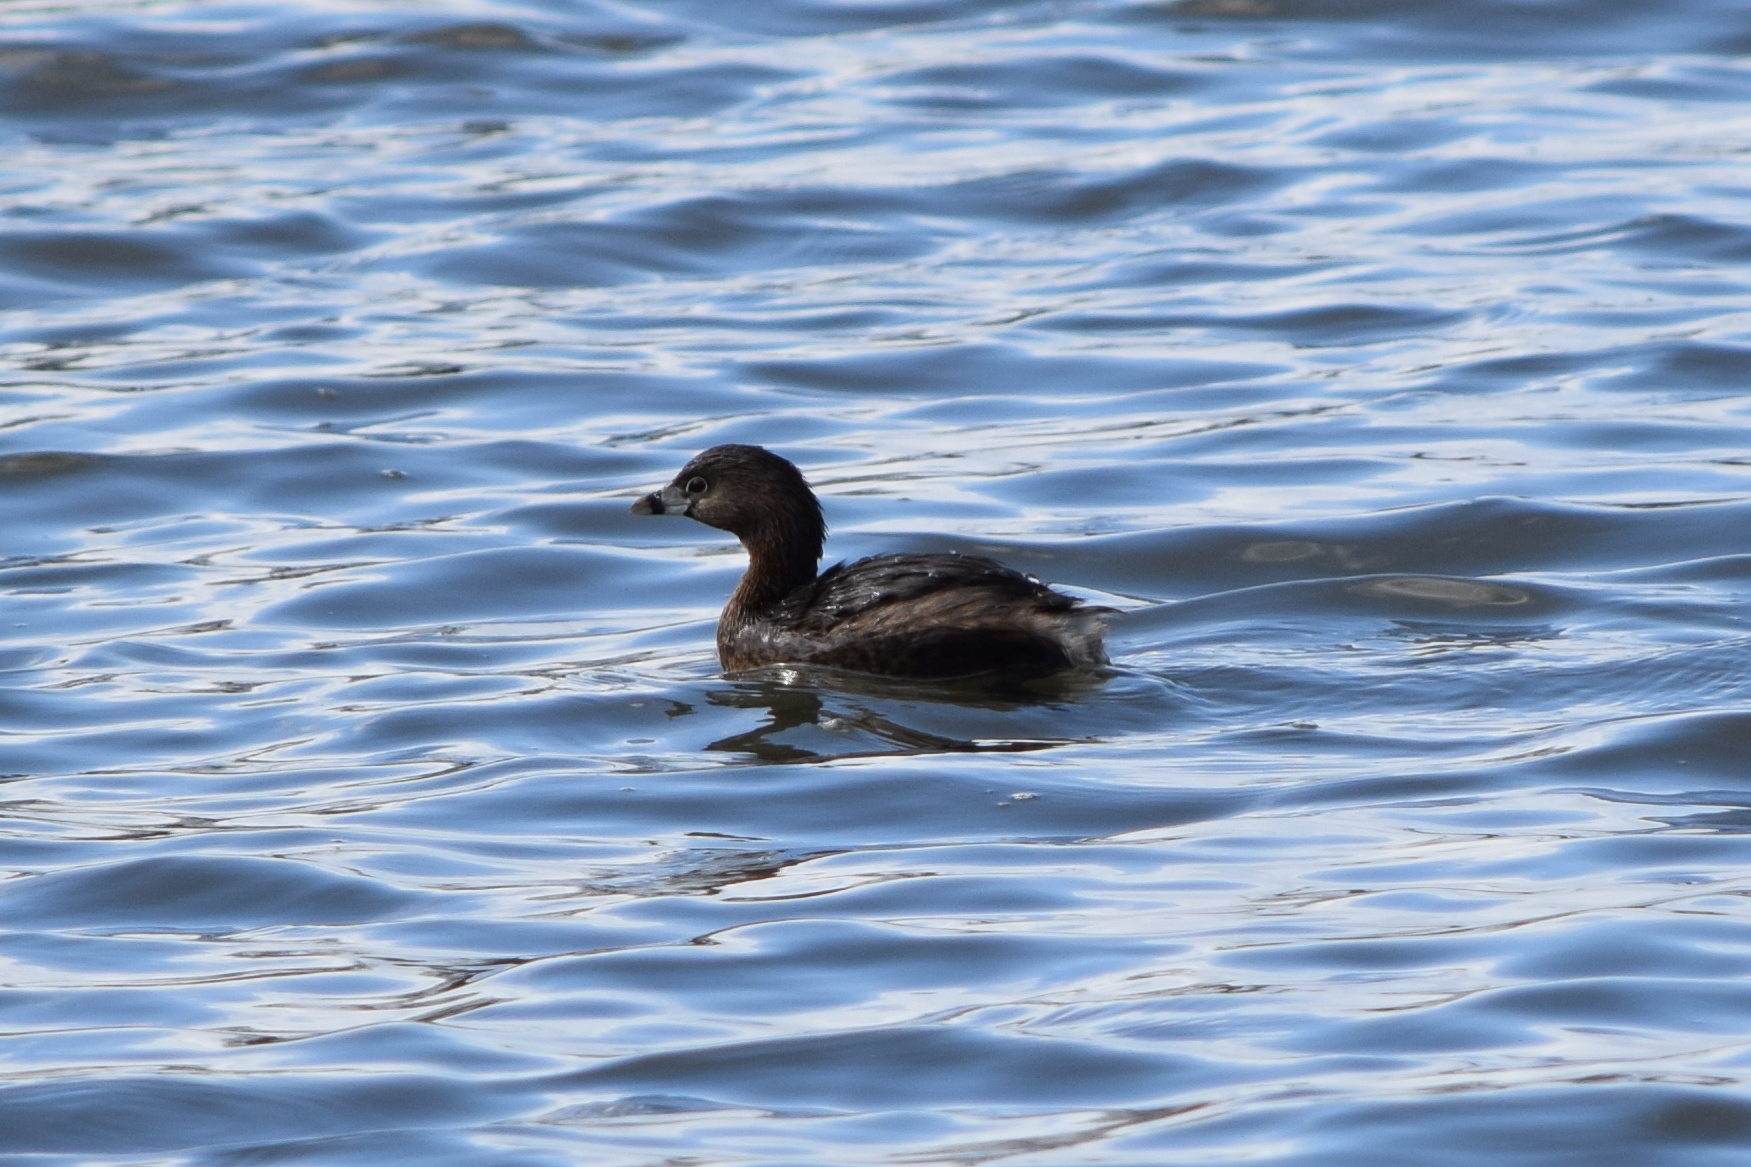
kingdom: Animalia
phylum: Chordata
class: Aves
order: Podicipediformes
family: Podicipedidae
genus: Podilymbus
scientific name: Podilymbus podiceps
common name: Pied-billed grebe
